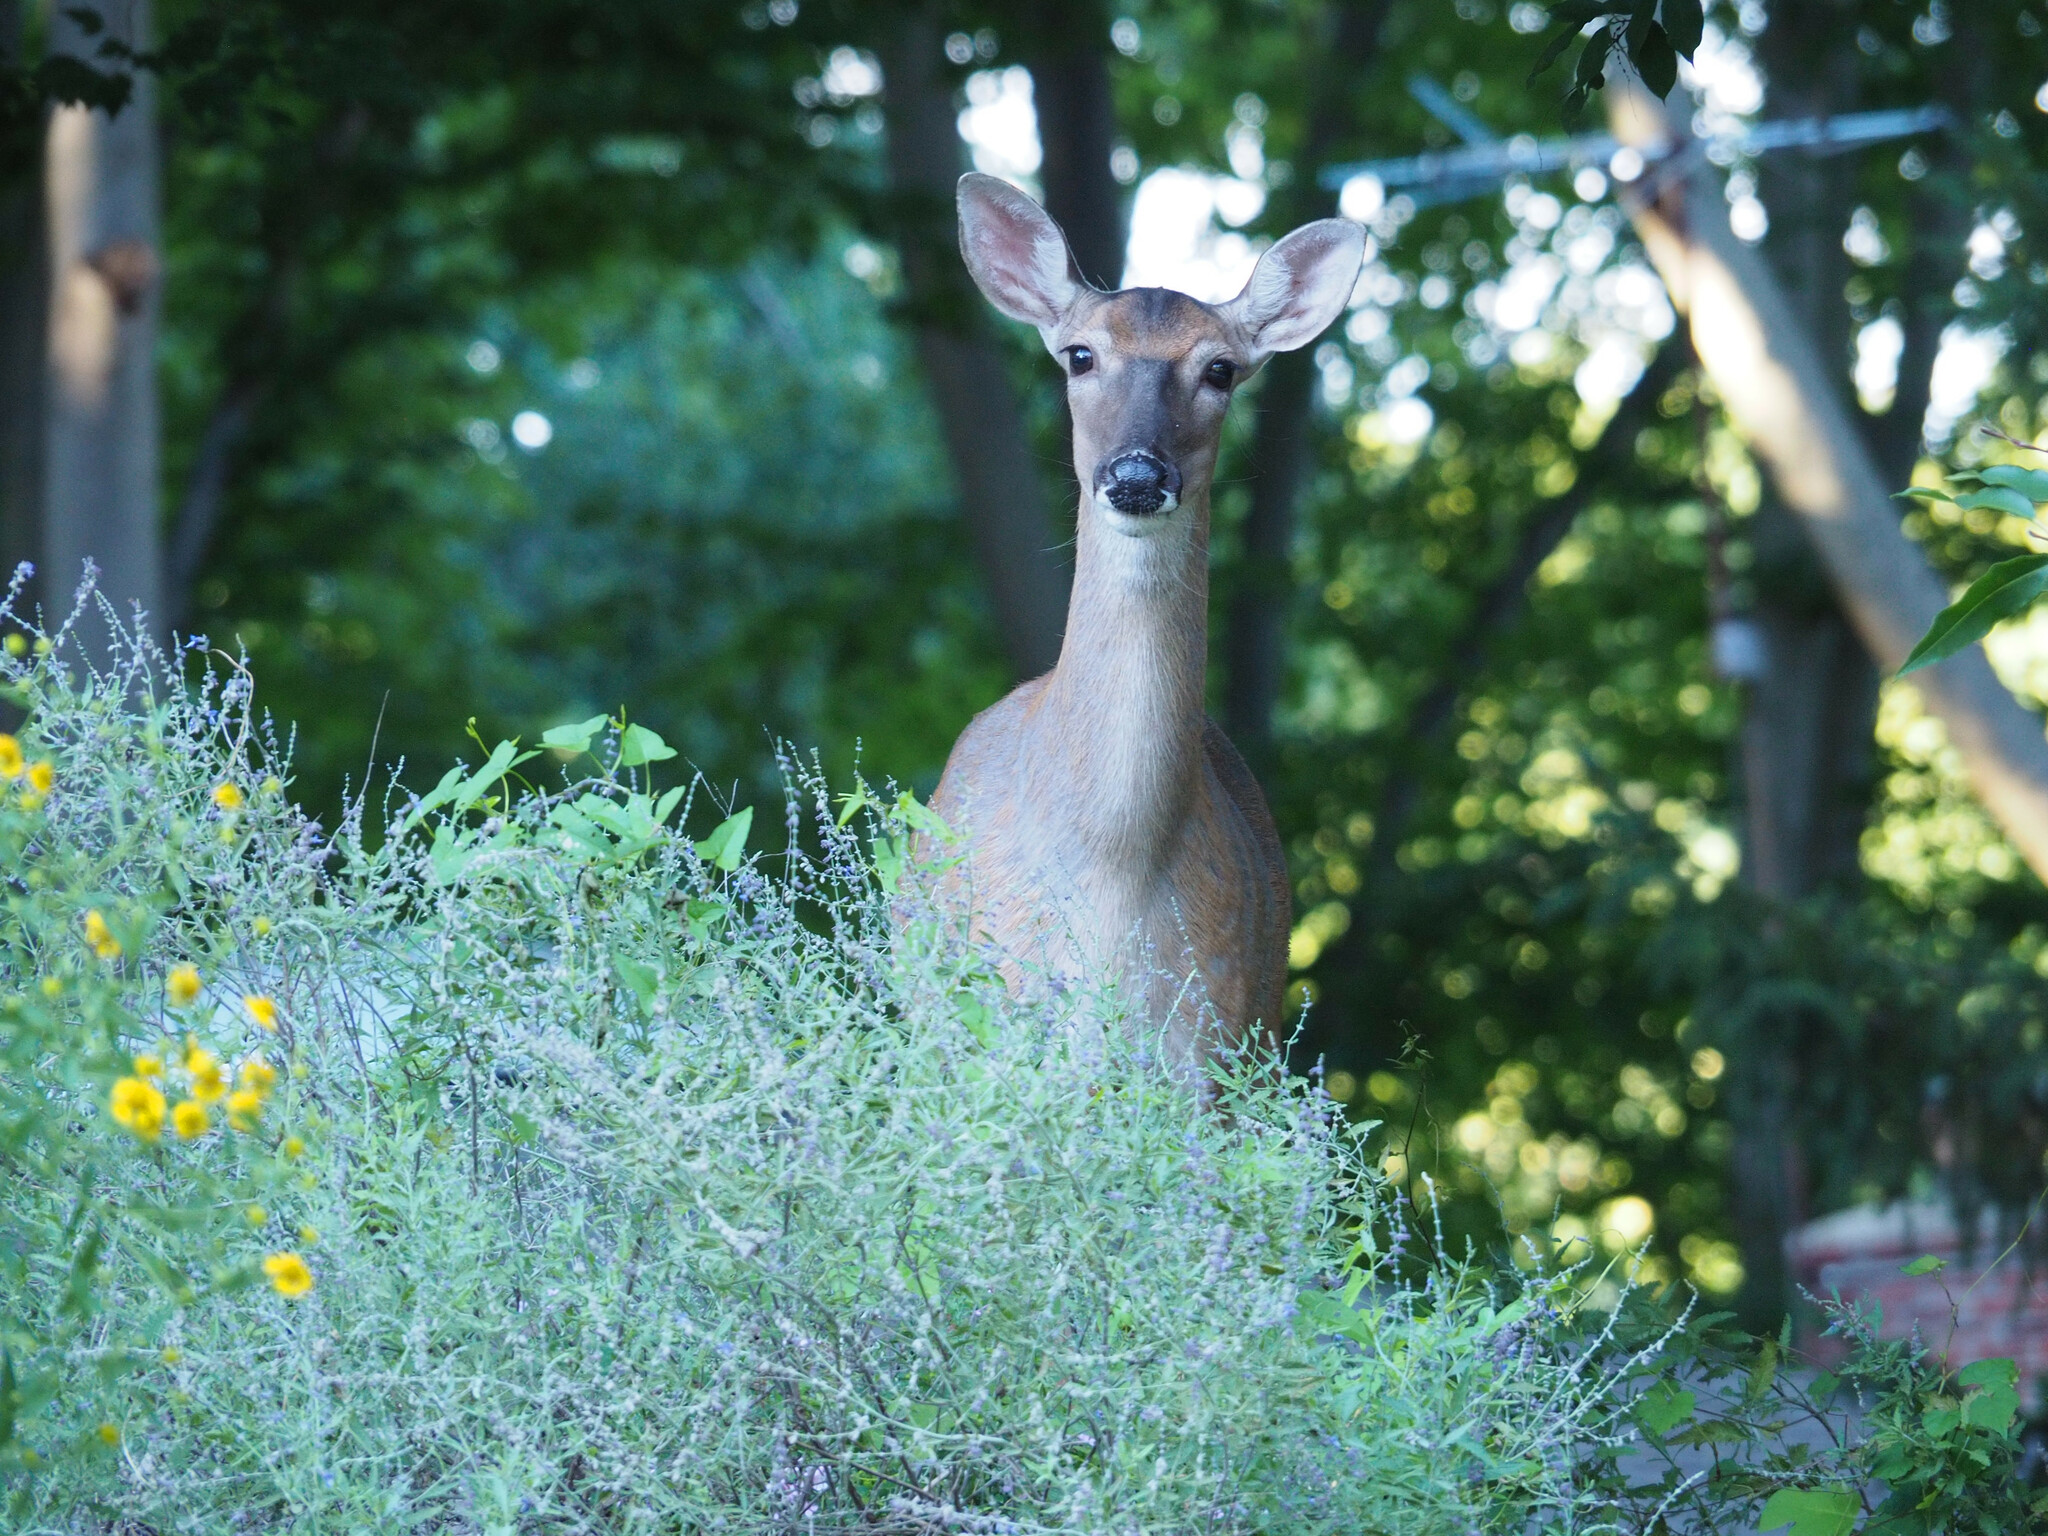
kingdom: Animalia
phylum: Chordata
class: Mammalia
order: Artiodactyla
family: Cervidae
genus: Odocoileus
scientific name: Odocoileus virginianus
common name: White-tailed deer
